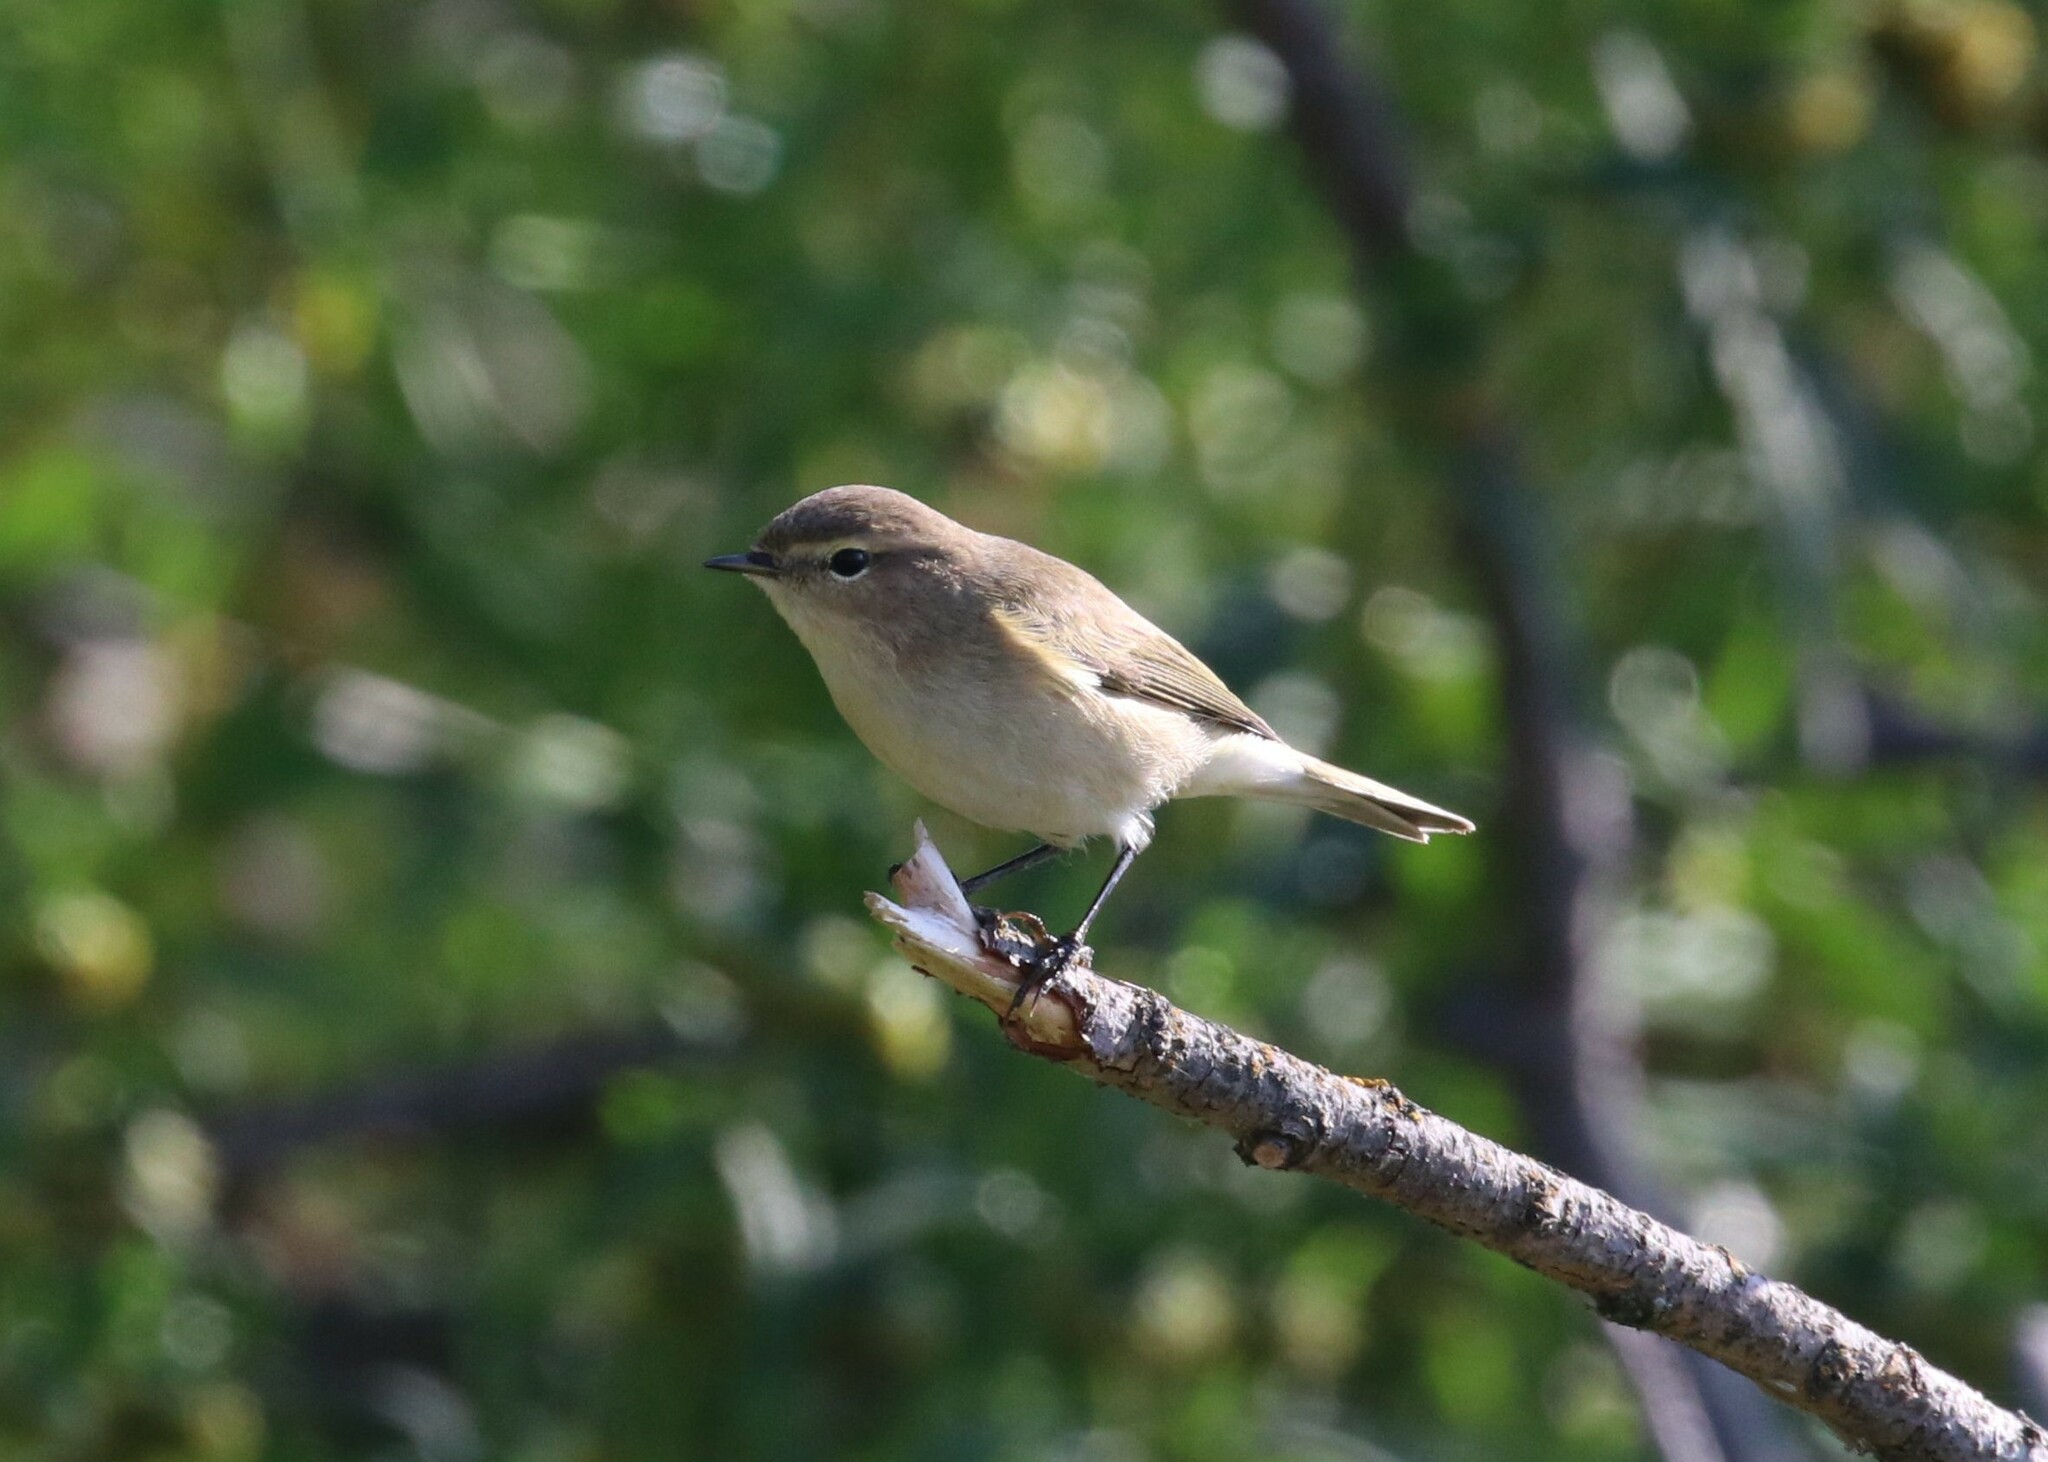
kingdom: Animalia
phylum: Chordata
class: Aves
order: Passeriformes
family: Phylloscopidae
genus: Phylloscopus
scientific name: Phylloscopus collybita
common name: Common chiffchaff
